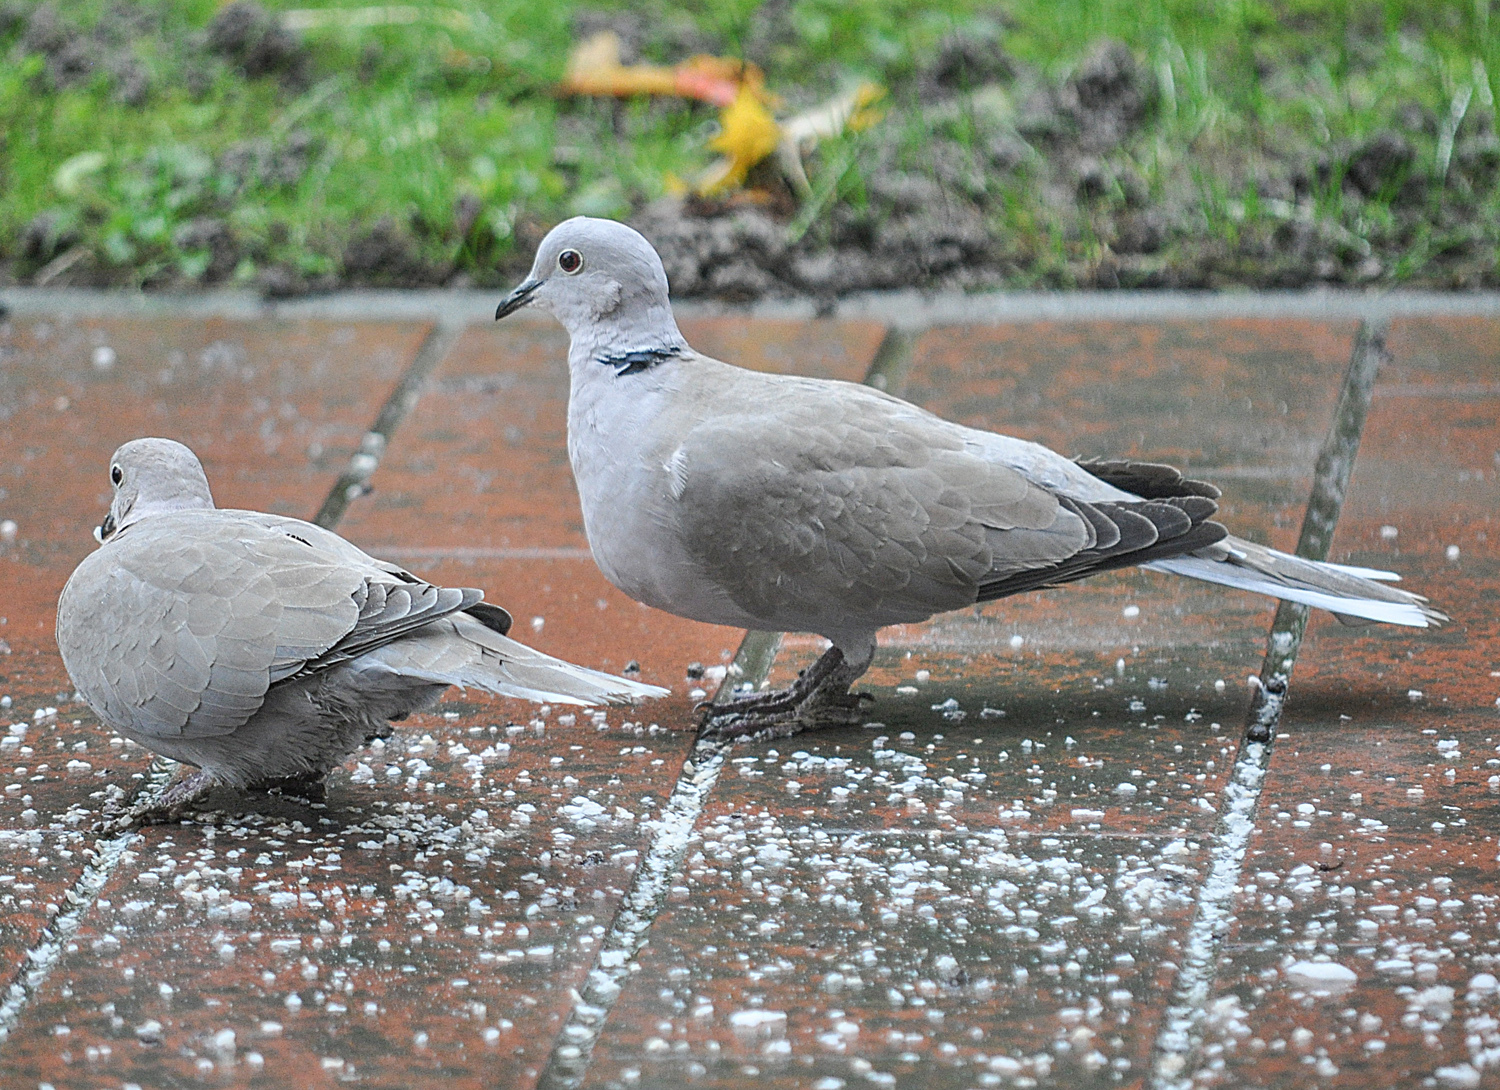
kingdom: Animalia
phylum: Chordata
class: Aves
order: Columbiformes
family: Columbidae
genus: Streptopelia
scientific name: Streptopelia decaocto
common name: Eurasian collared dove
